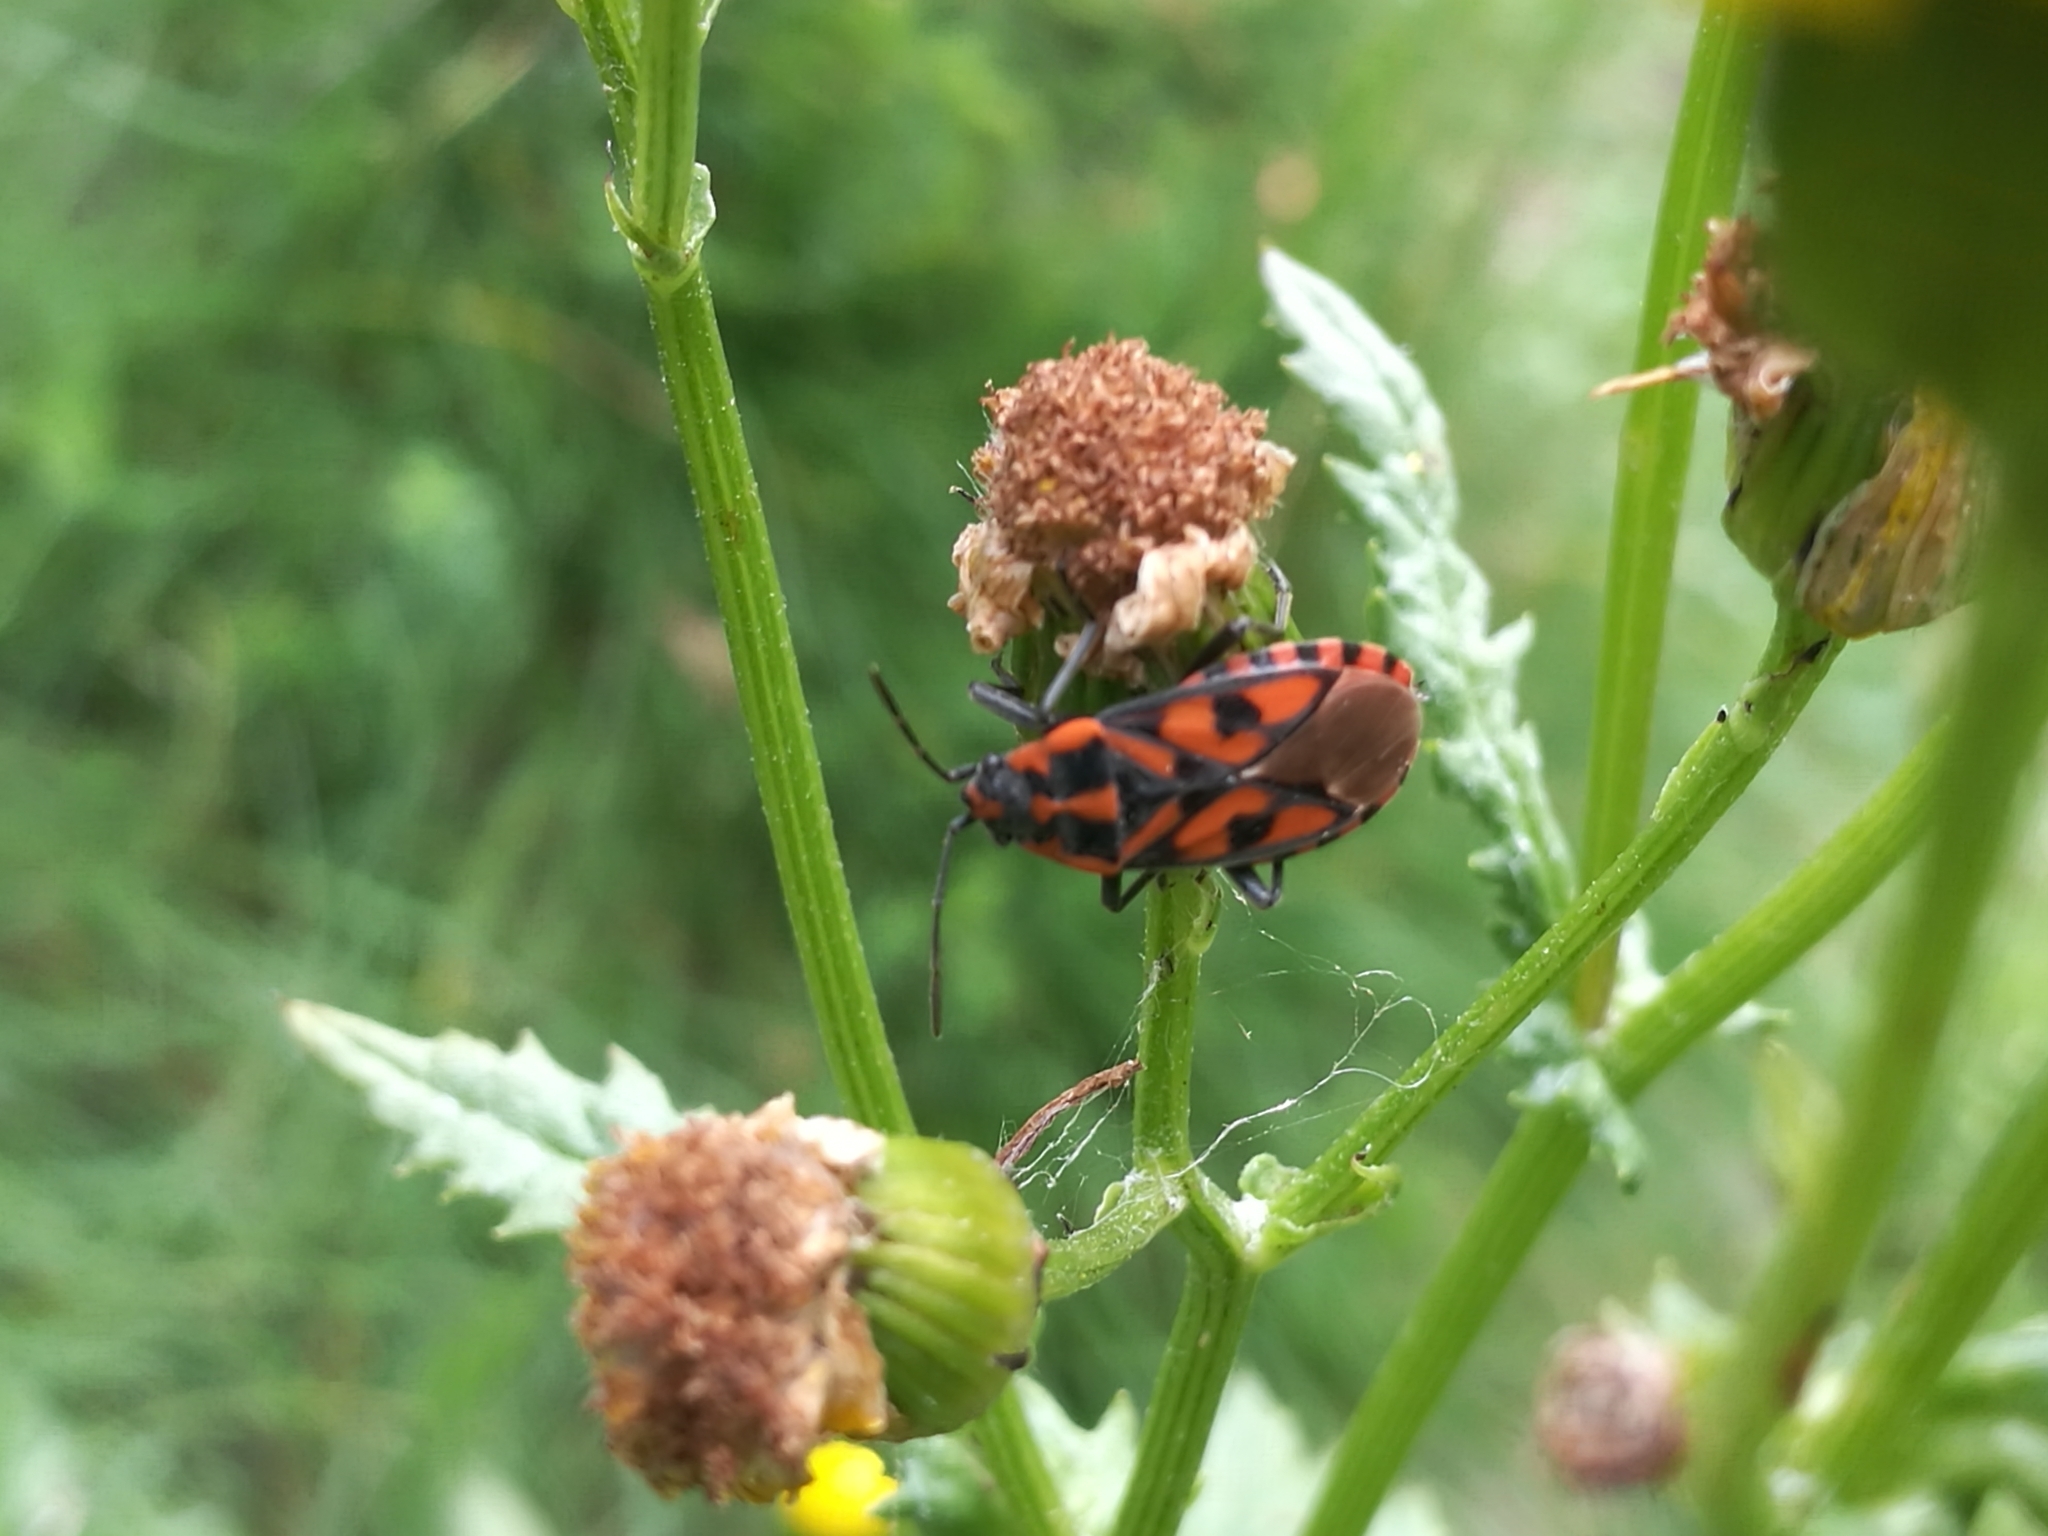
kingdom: Animalia
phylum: Arthropoda
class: Insecta
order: Hemiptera
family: Lygaeidae
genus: Spilostethus
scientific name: Spilostethus saxatilis
